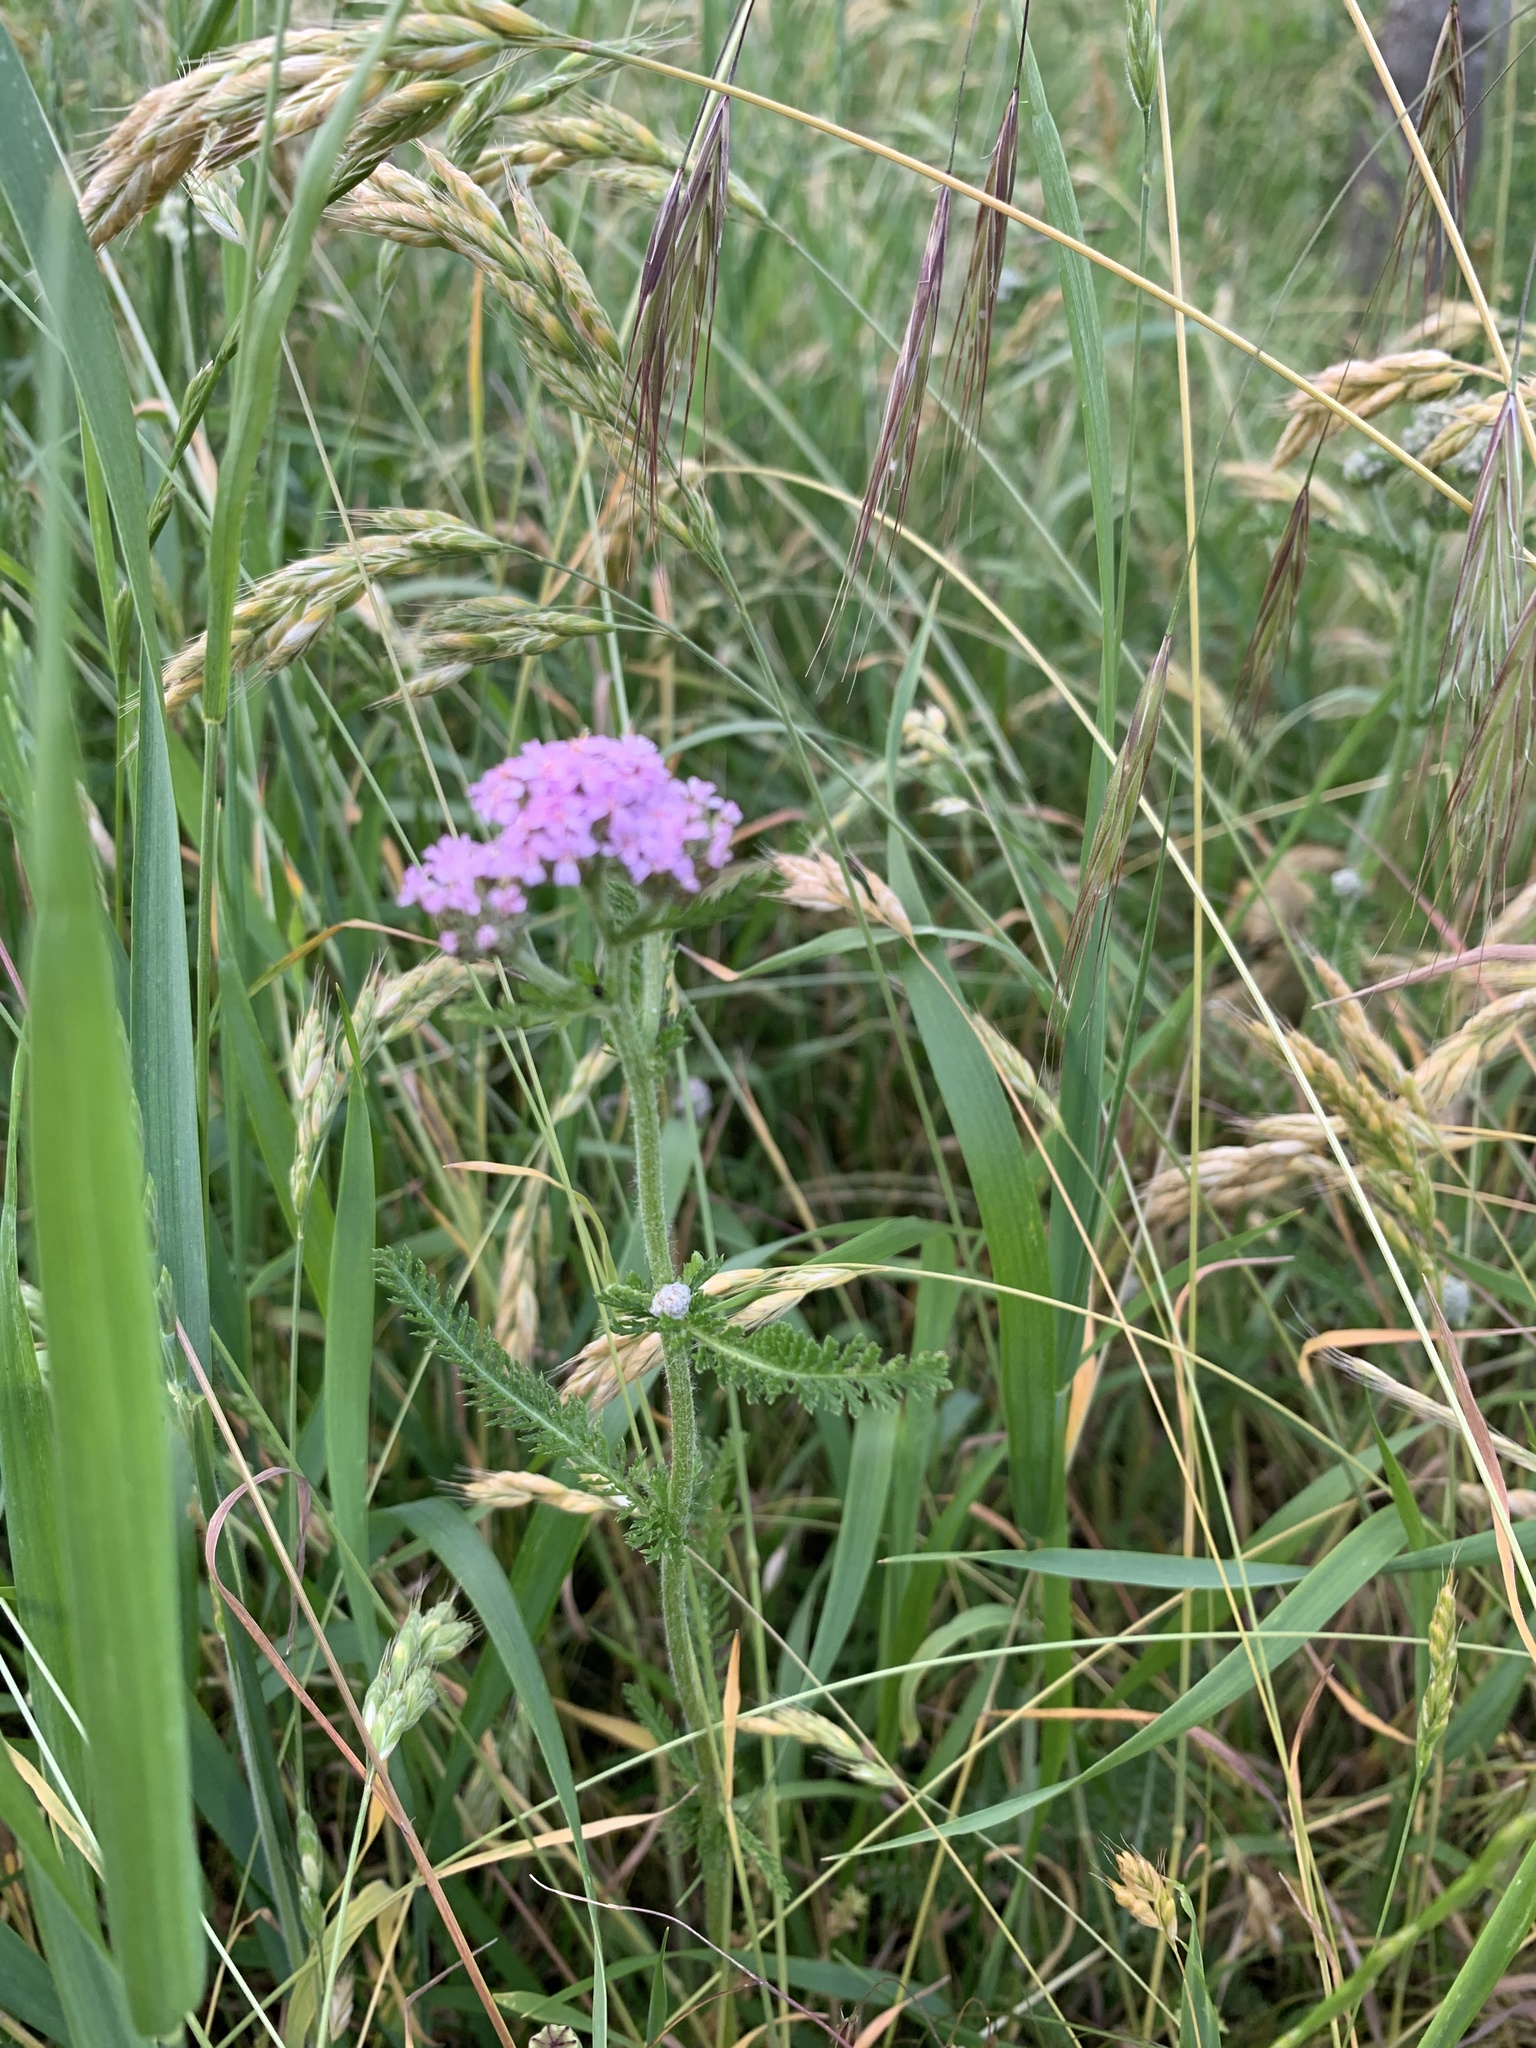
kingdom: Plantae
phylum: Tracheophyta
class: Magnoliopsida
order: Asterales
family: Asteraceae
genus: Achillea
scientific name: Achillea millefolium
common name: Yarrow
